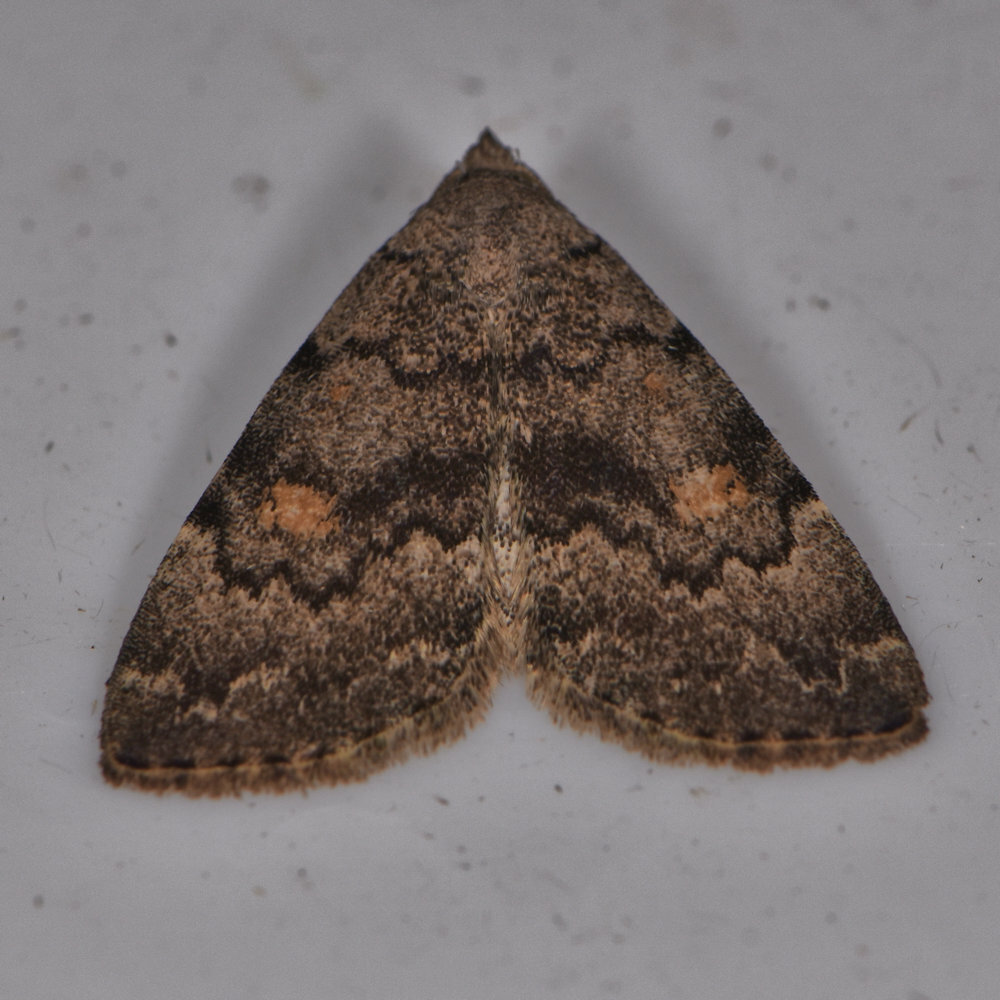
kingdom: Animalia
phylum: Arthropoda
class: Insecta
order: Lepidoptera
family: Erebidae
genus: Idia
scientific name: Idia aemula
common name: Common idia moth
